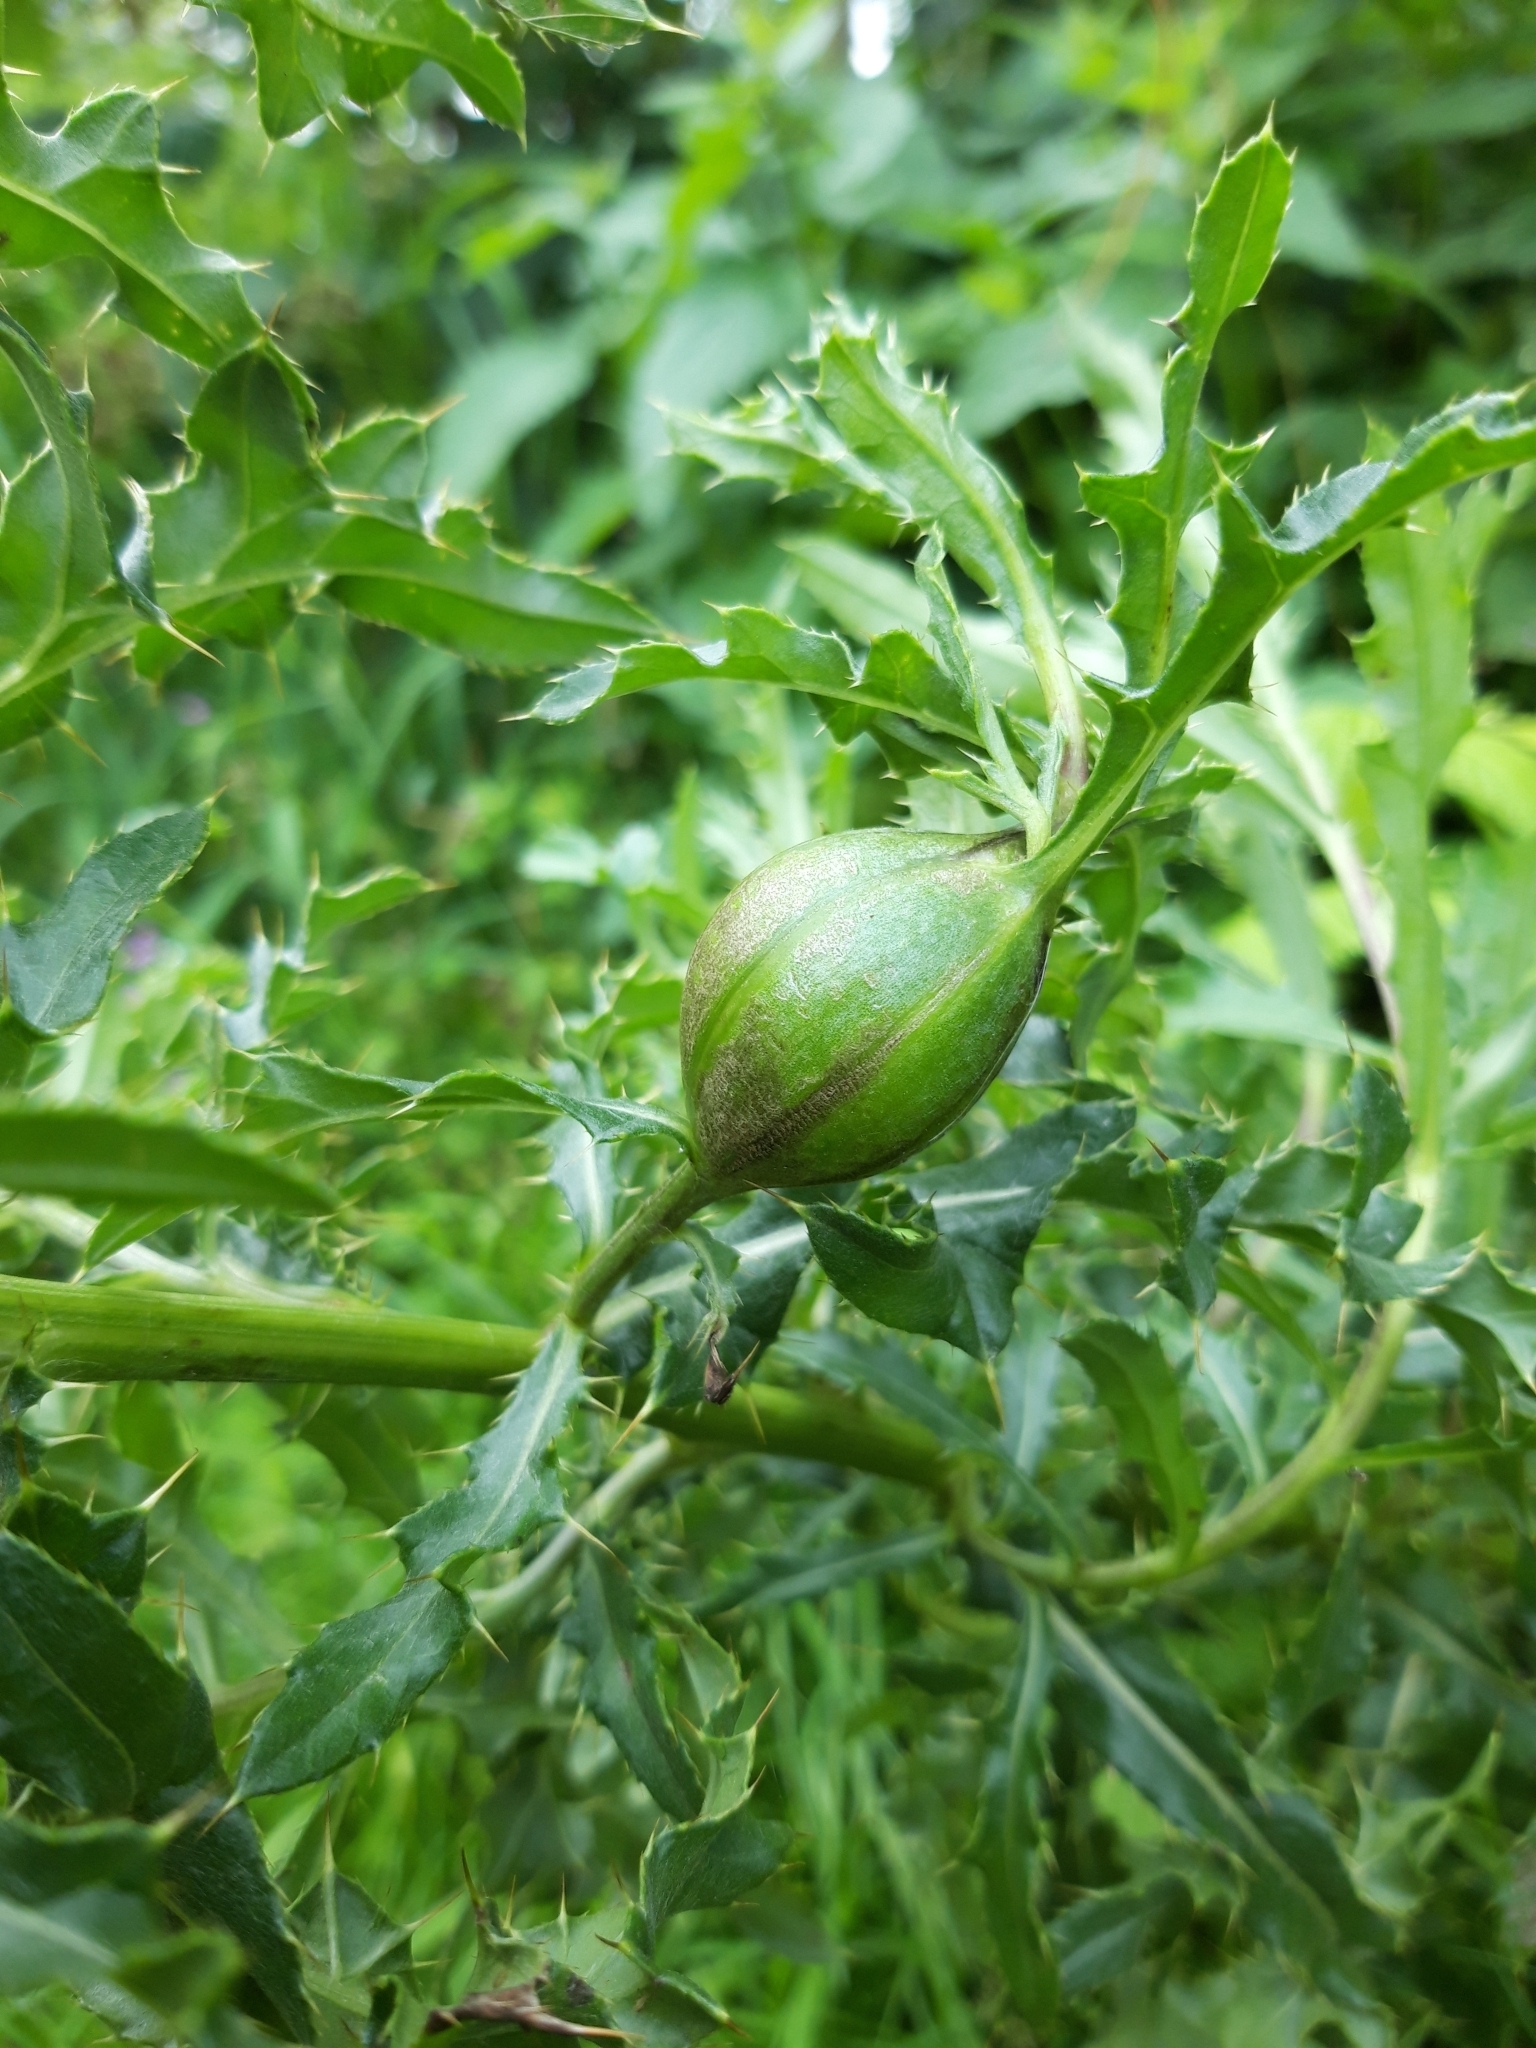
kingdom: Animalia
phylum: Arthropoda
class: Insecta
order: Diptera
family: Tephritidae
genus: Urophora
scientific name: Urophora cardui
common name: Fruit fly
